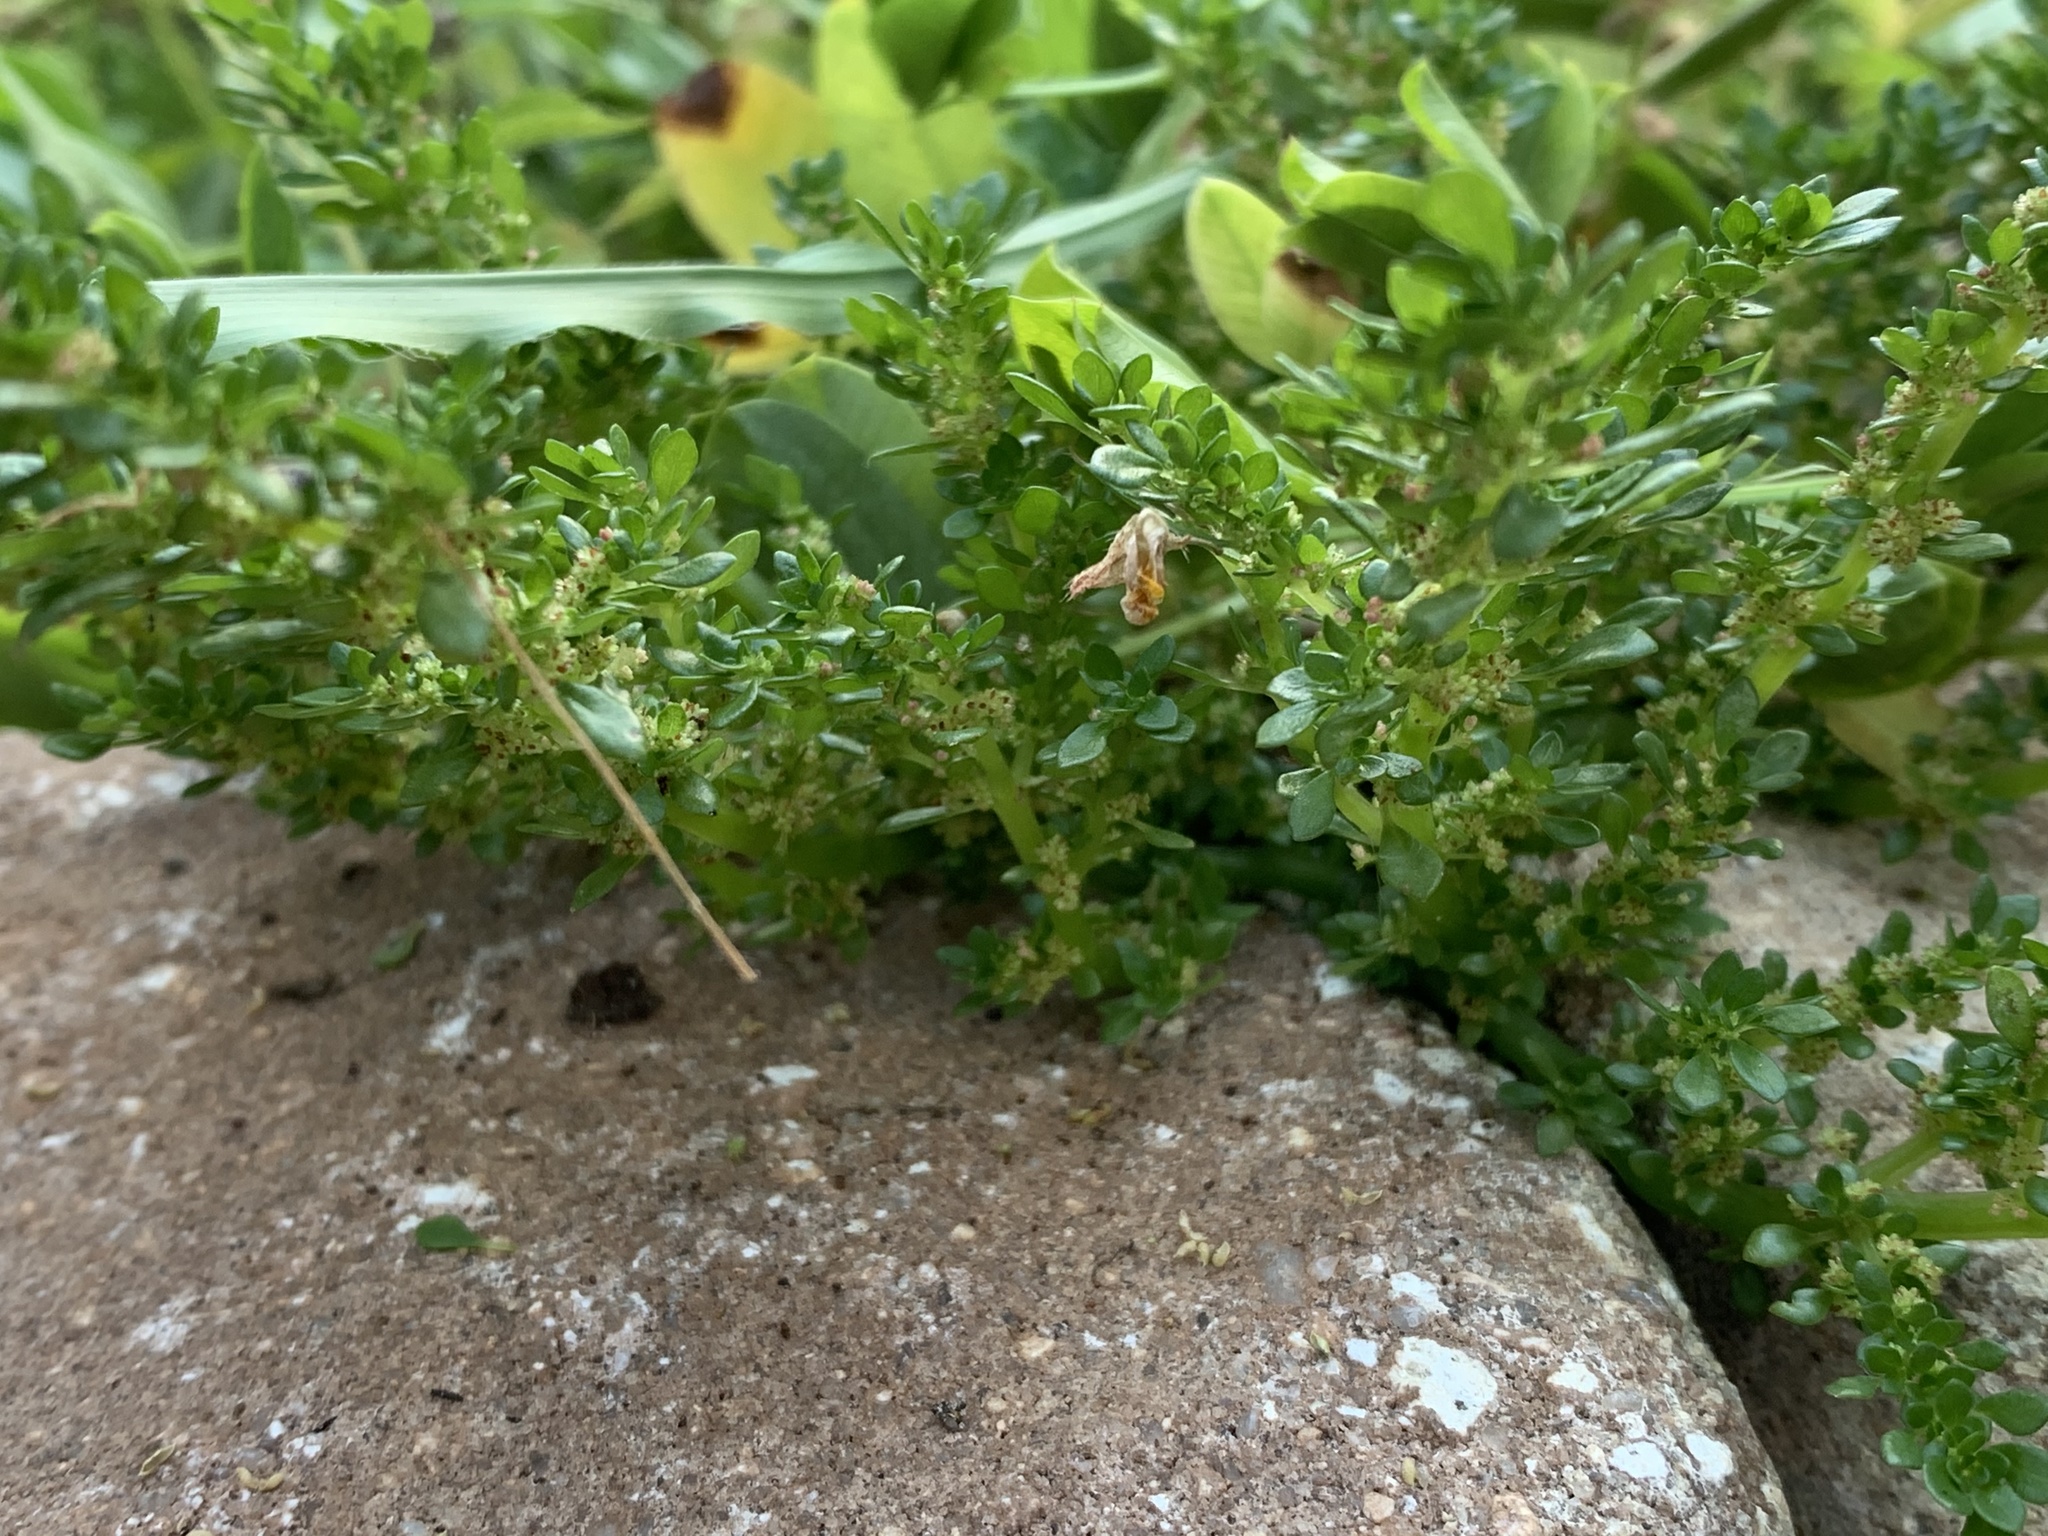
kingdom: Plantae
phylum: Tracheophyta
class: Magnoliopsida
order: Rosales
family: Urticaceae
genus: Pilea
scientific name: Pilea microphylla
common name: Artillery-plant
